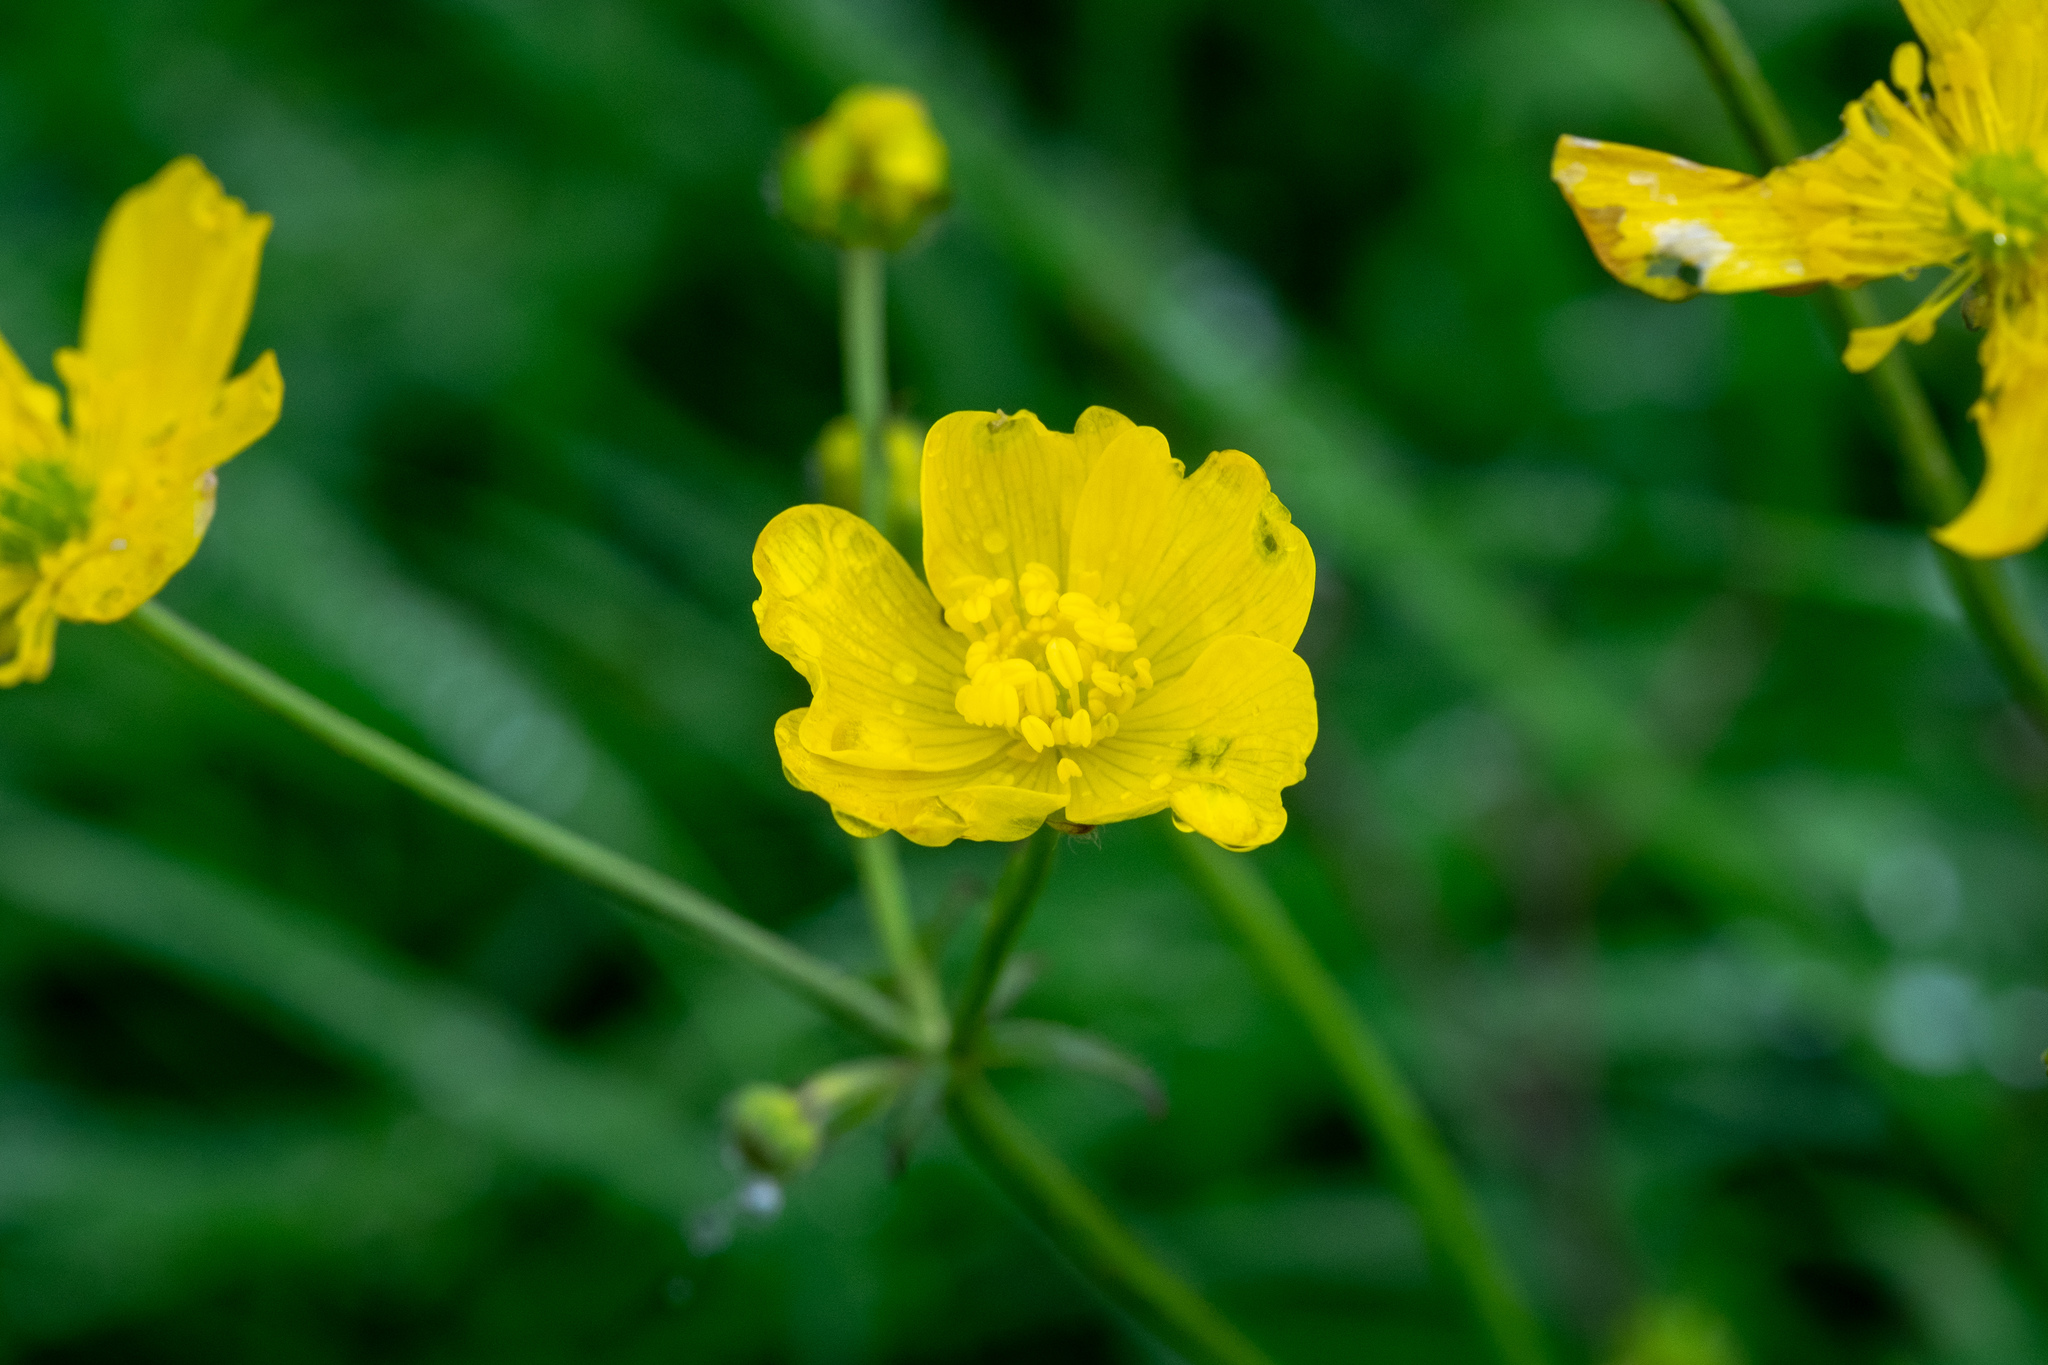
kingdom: Plantae
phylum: Tracheophyta
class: Magnoliopsida
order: Ranunculales
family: Ranunculaceae
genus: Ranunculus
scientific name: Ranunculus acris
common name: Meadow buttercup
